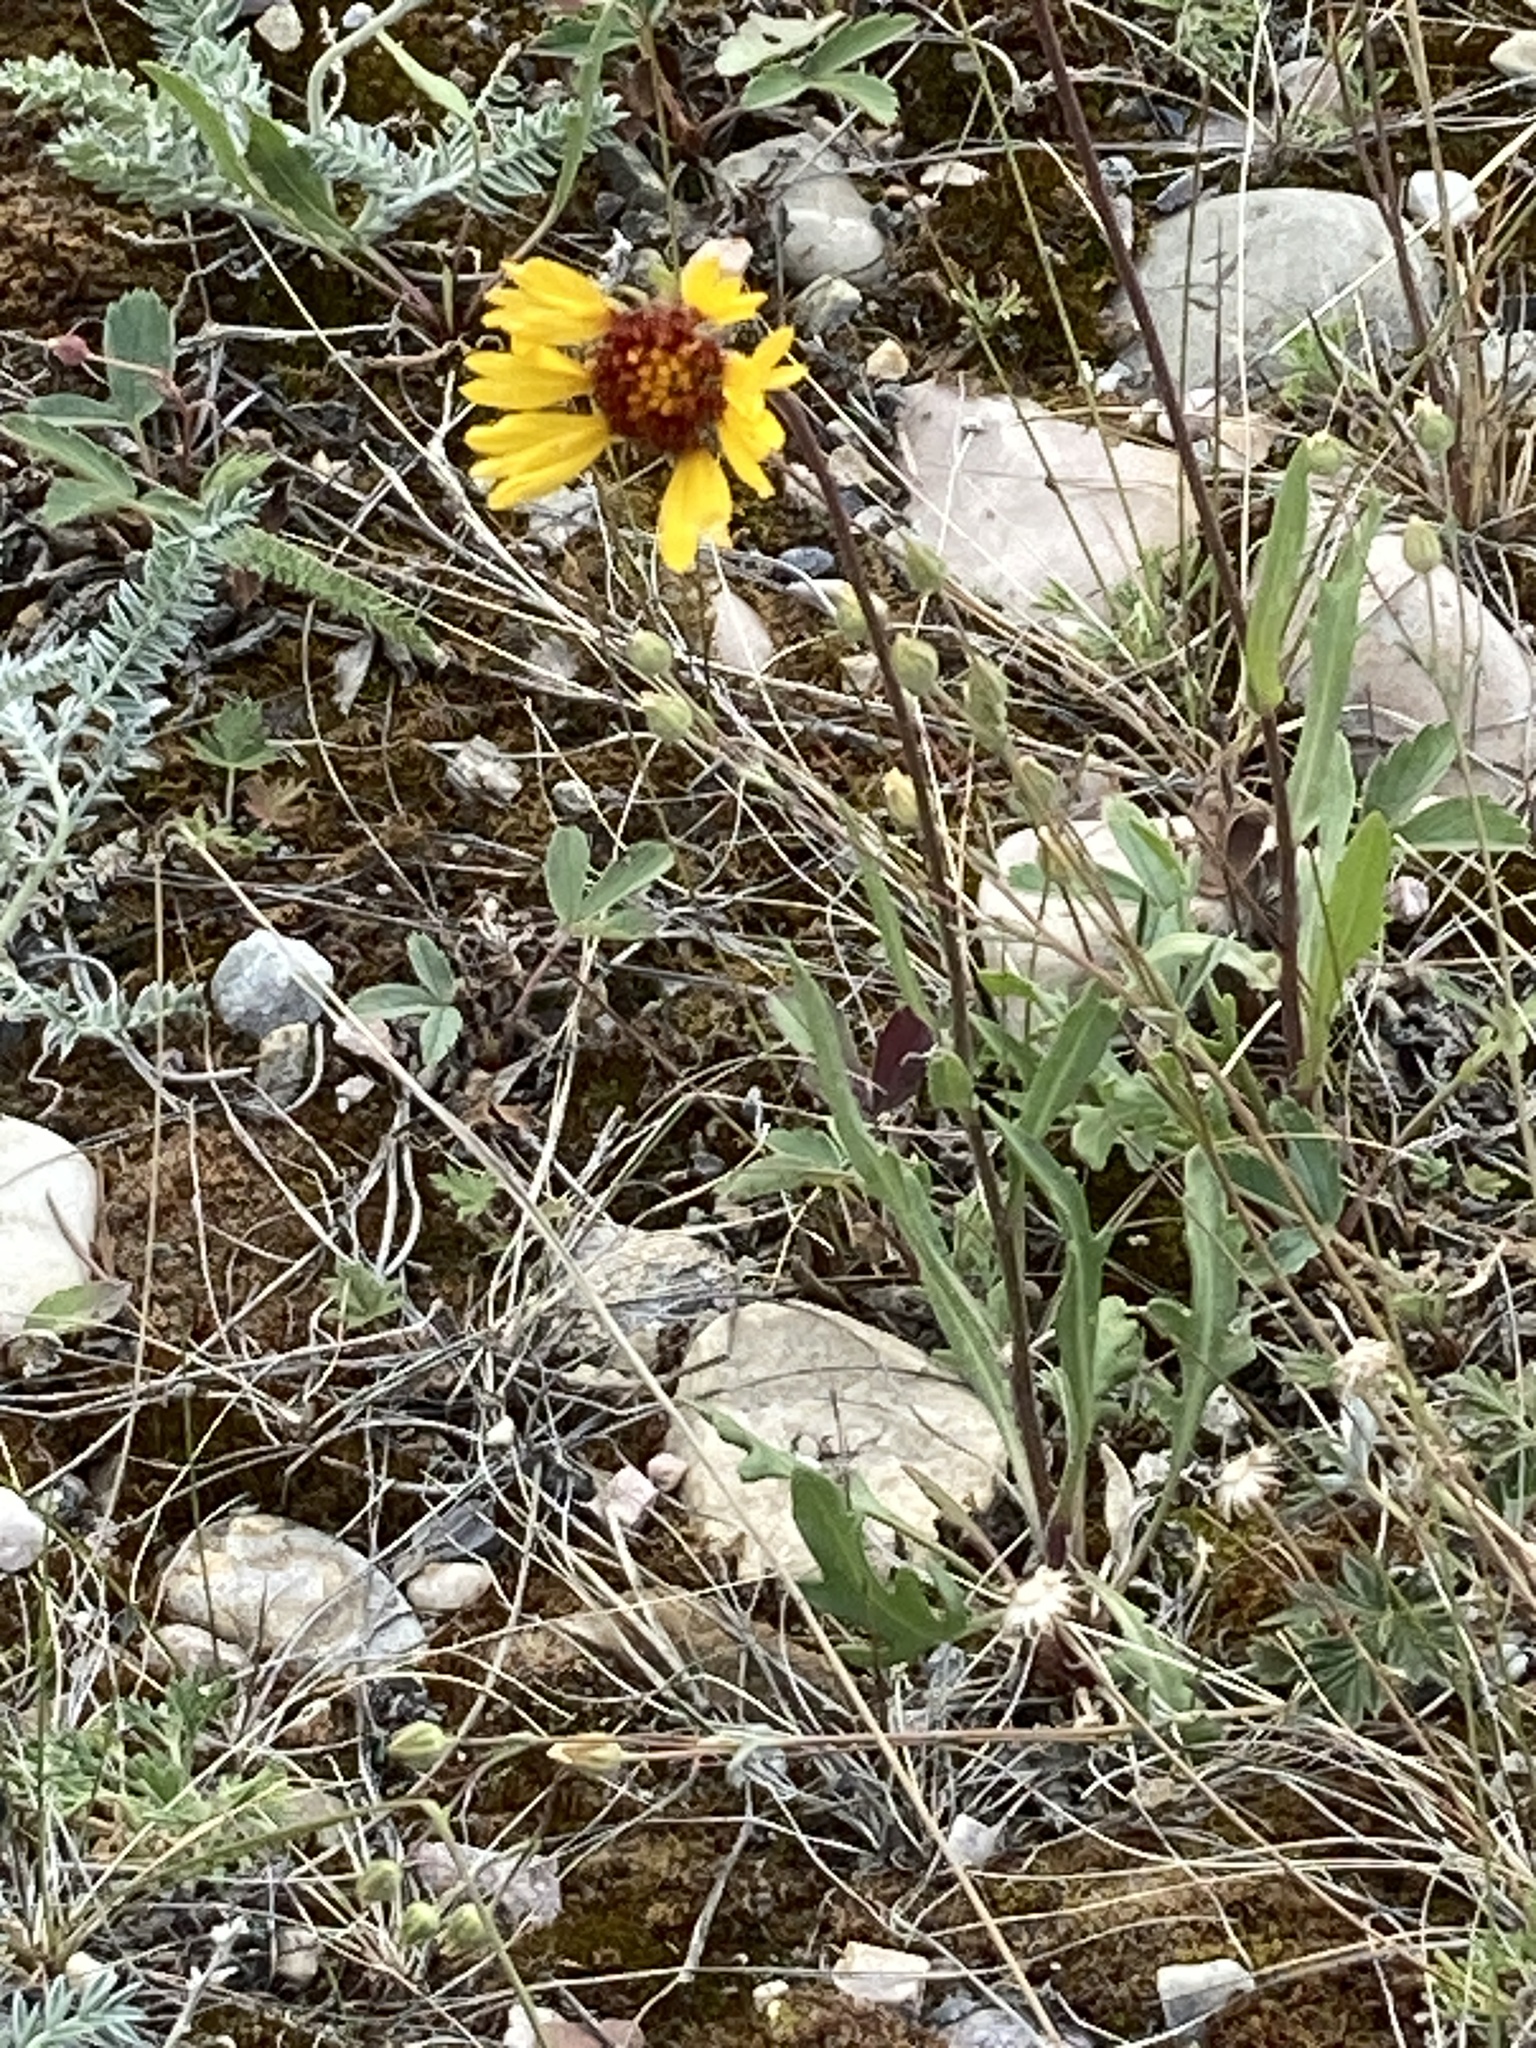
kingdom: Plantae
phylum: Tracheophyta
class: Magnoliopsida
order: Asterales
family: Asteraceae
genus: Gaillardia
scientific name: Gaillardia aristata
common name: Blanket-flower
